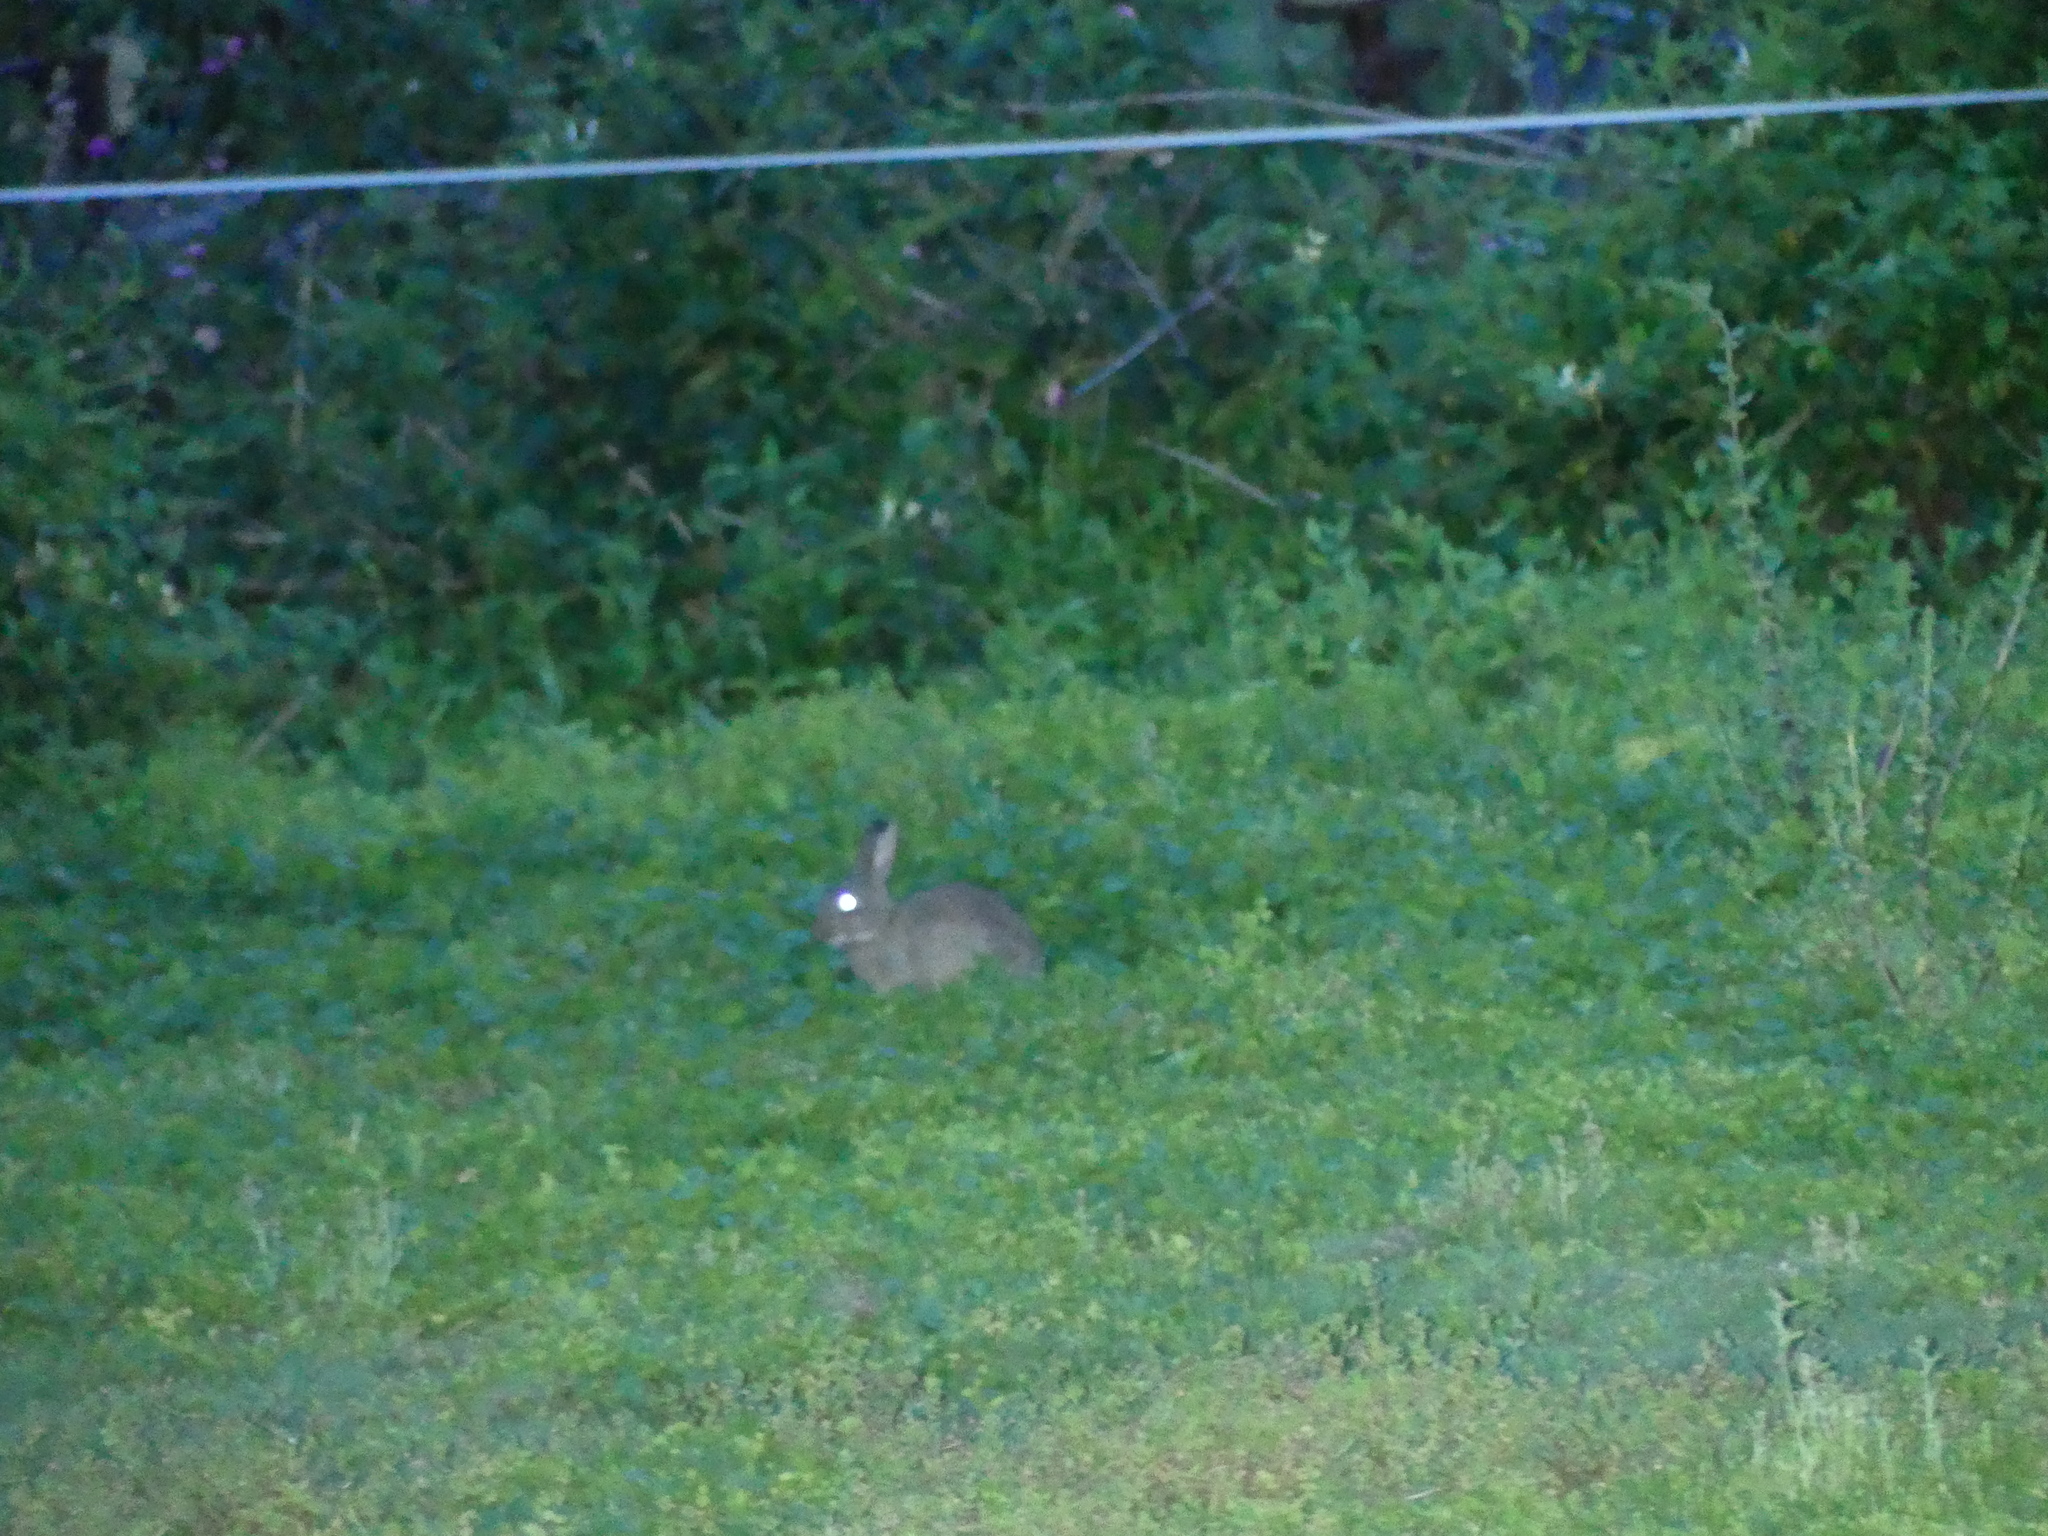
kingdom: Animalia
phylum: Chordata
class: Mammalia
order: Lagomorpha
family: Leporidae
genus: Oryctolagus
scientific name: Oryctolagus cuniculus
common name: European rabbit
